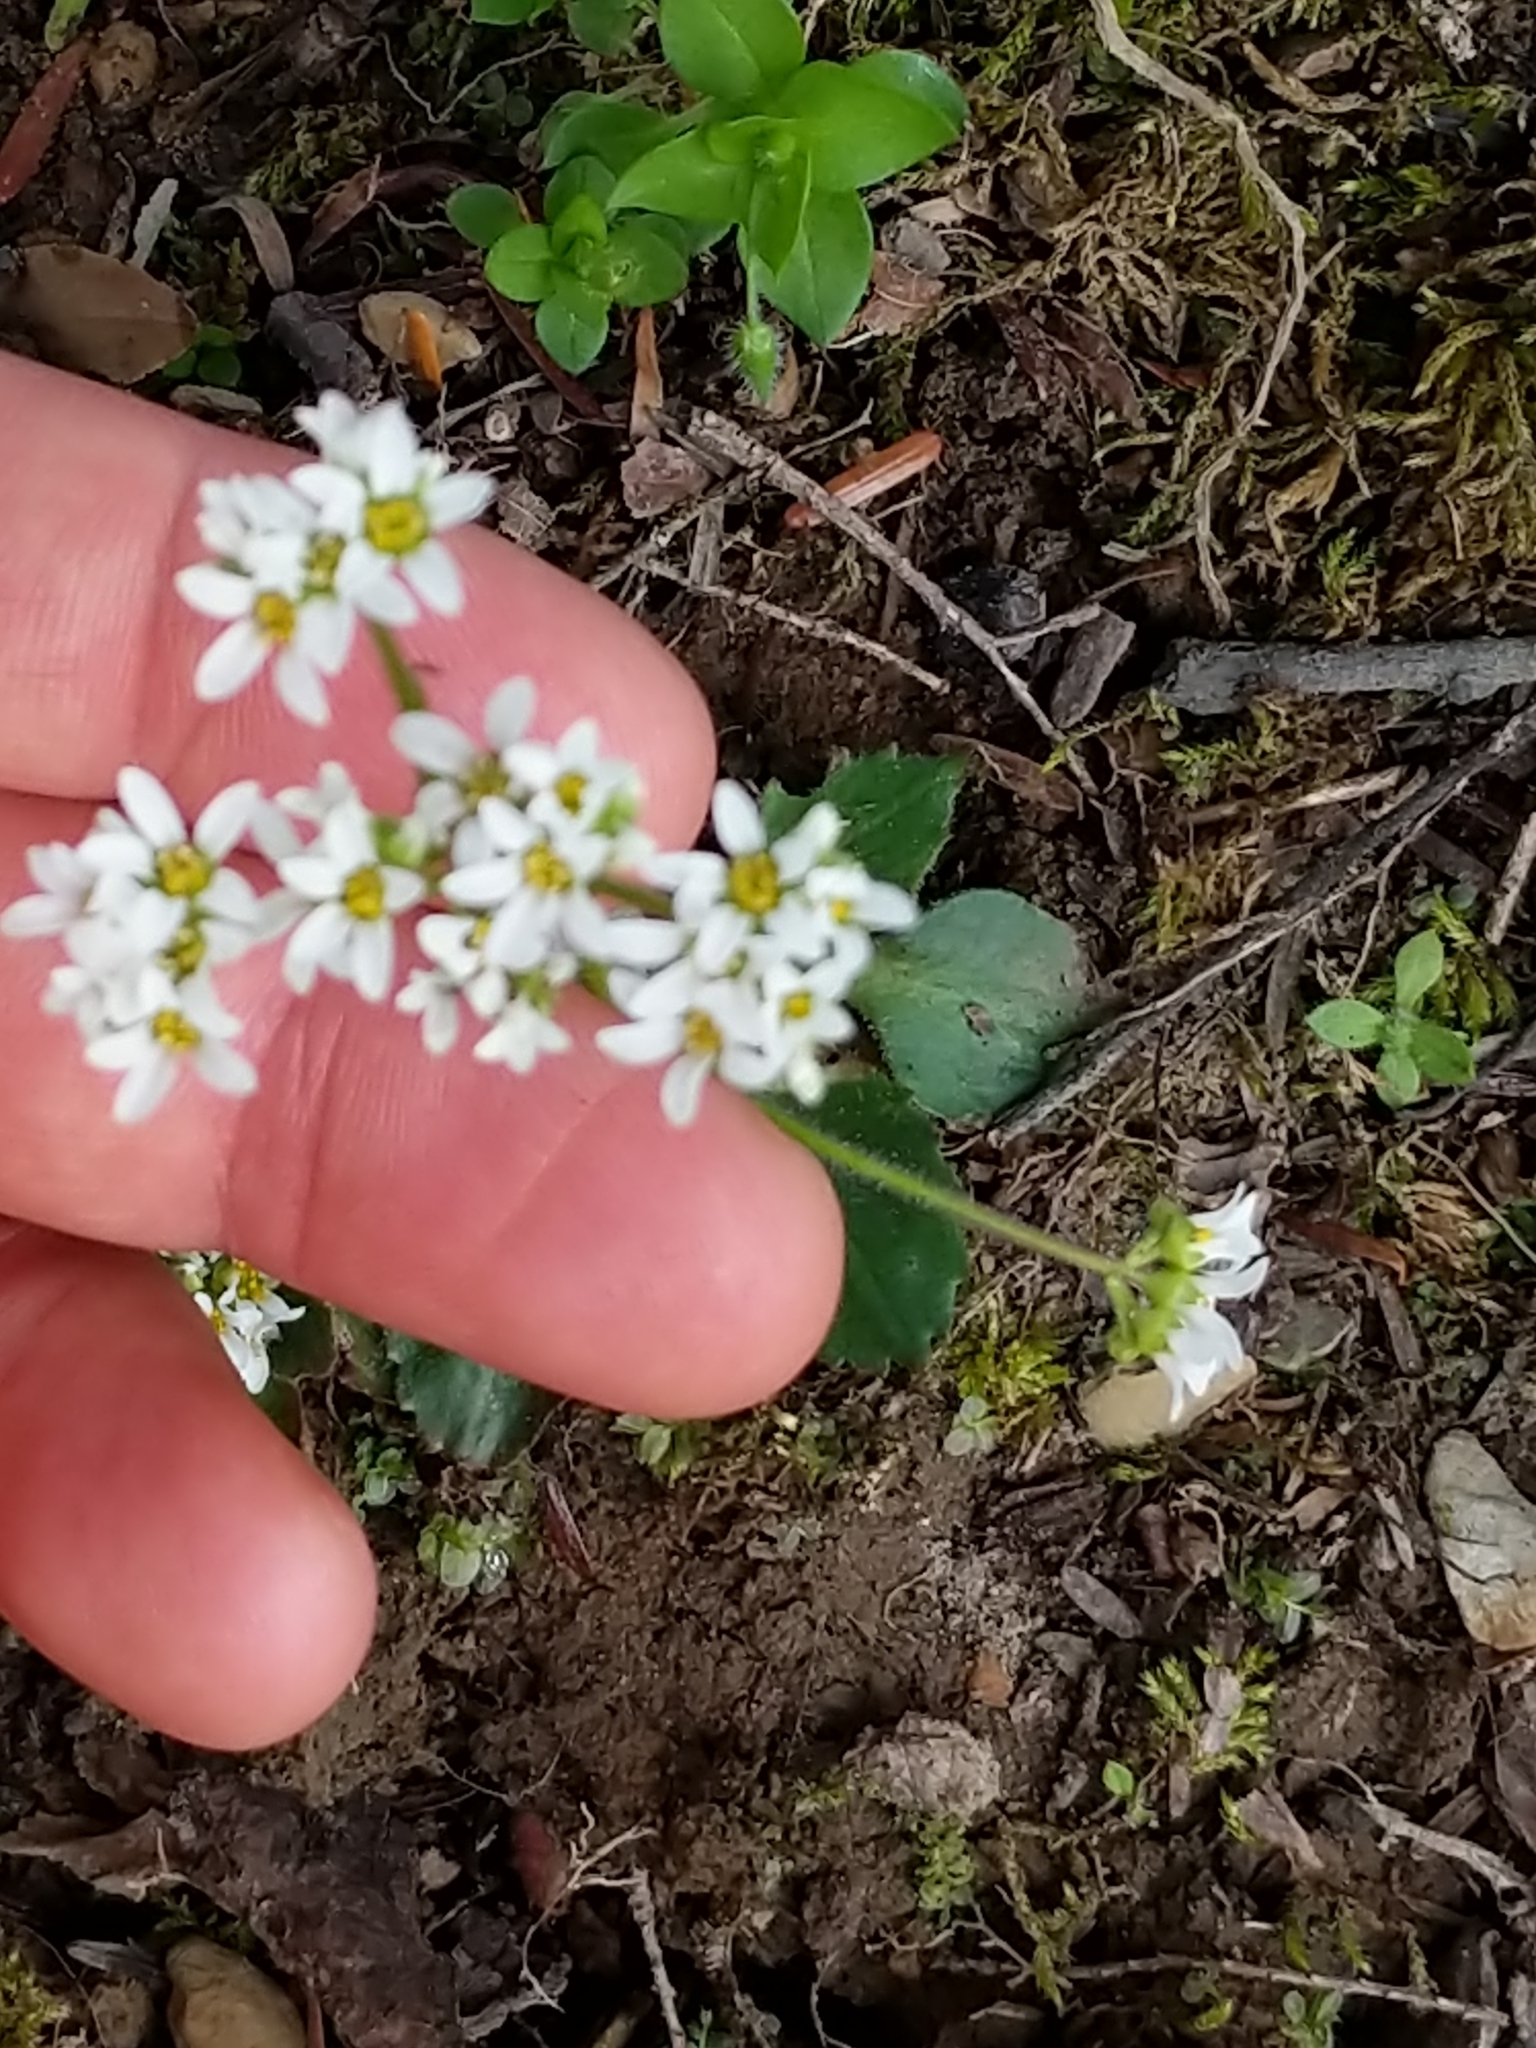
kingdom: Plantae
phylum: Tracheophyta
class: Magnoliopsida
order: Saxifragales
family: Saxifragaceae
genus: Micranthes
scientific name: Micranthes virginiensis
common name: Early saxifrage
